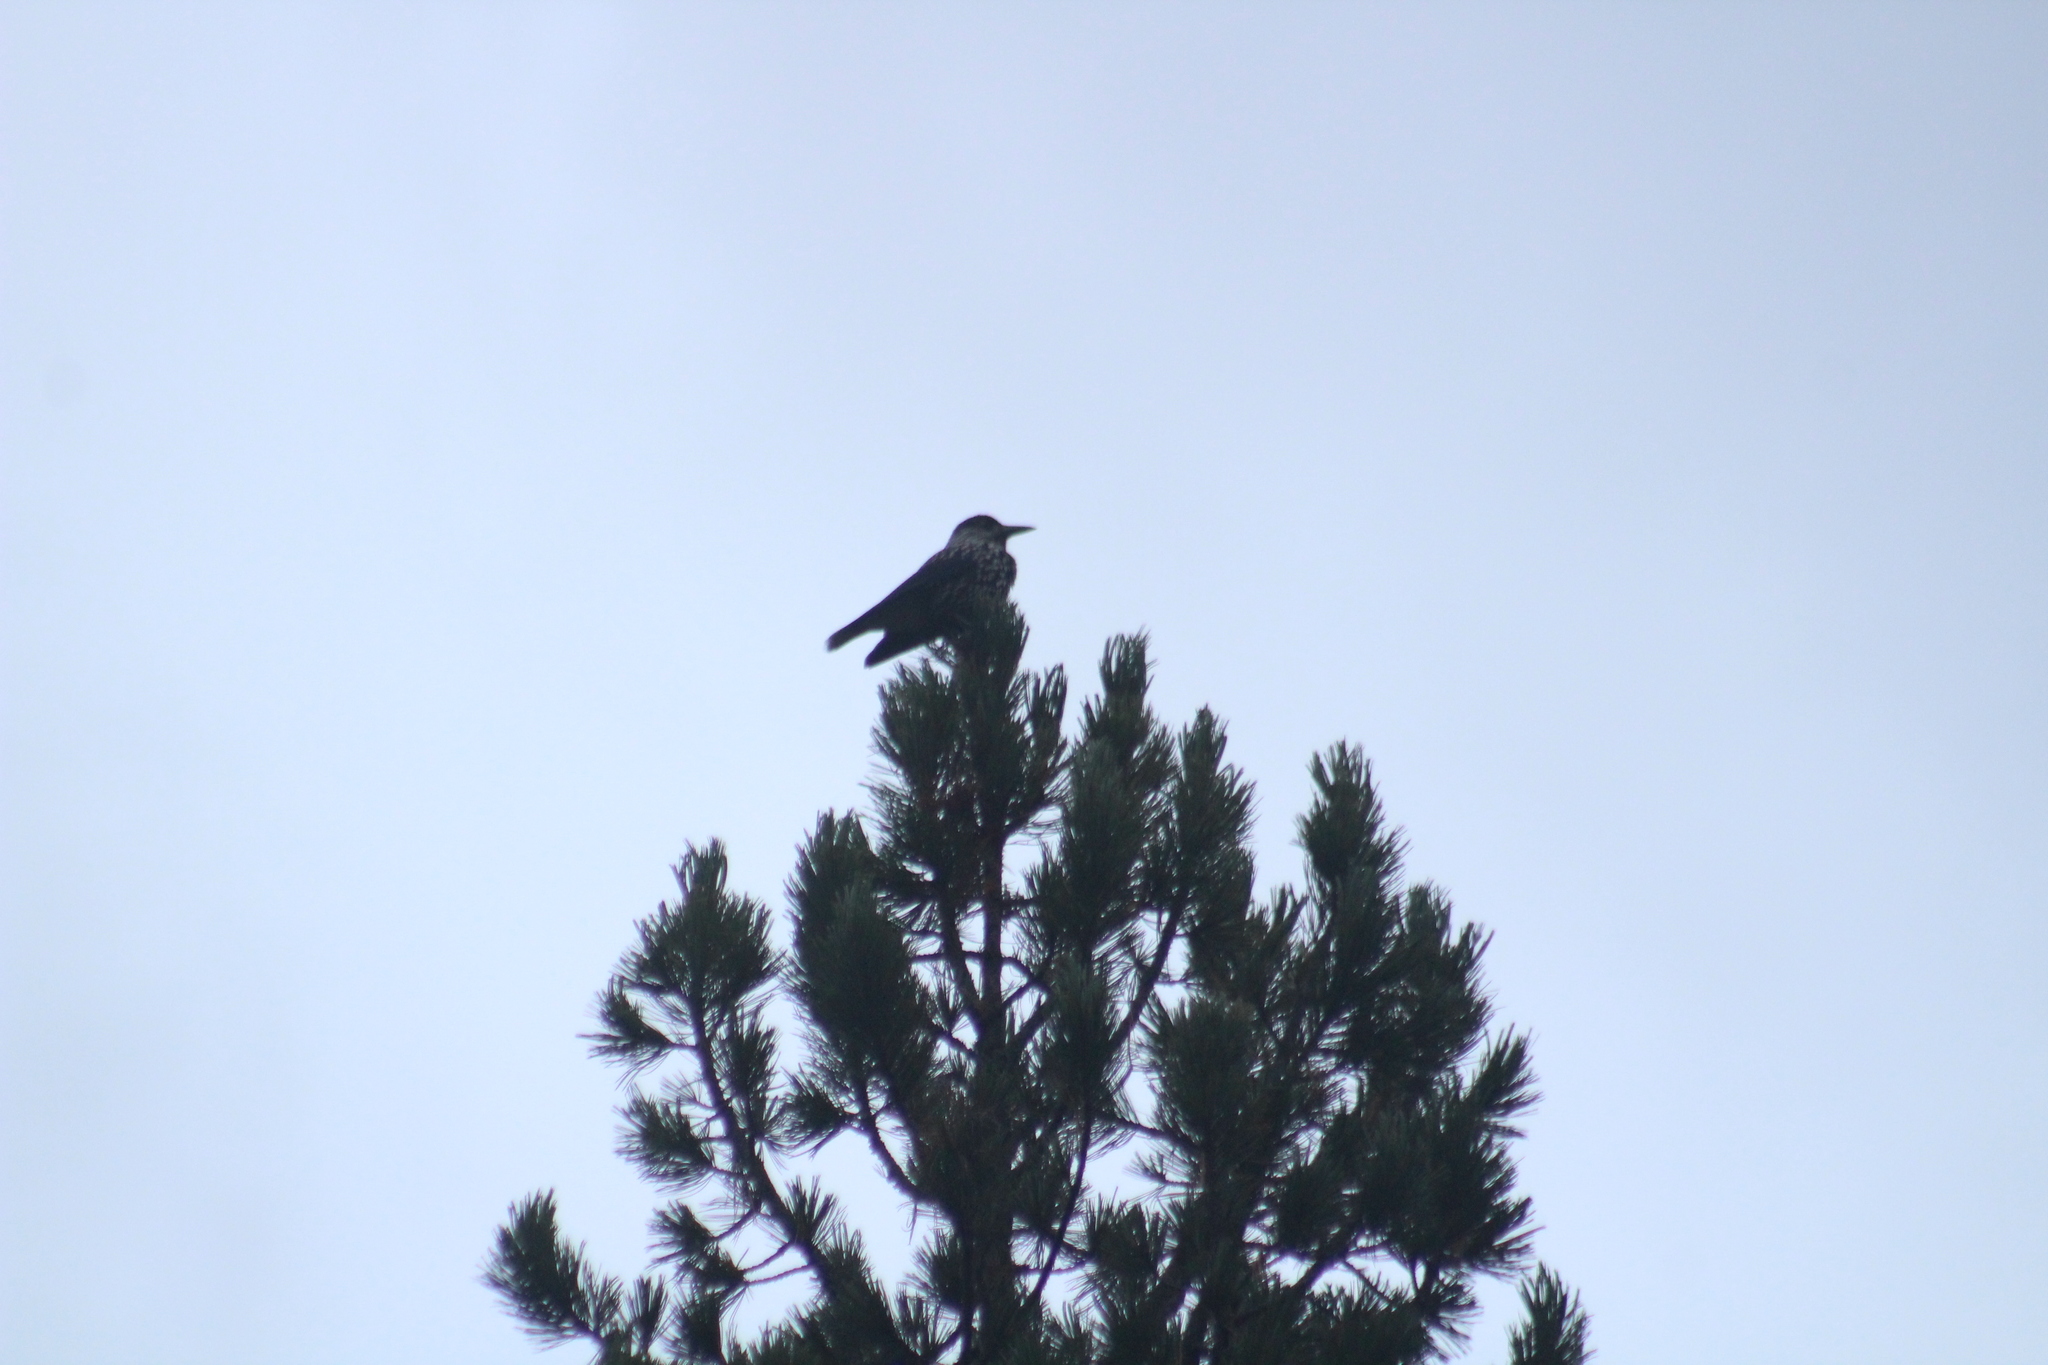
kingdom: Animalia
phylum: Chordata
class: Aves
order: Passeriformes
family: Corvidae
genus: Nucifraga
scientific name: Nucifraga caryocatactes
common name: Spotted nutcracker
